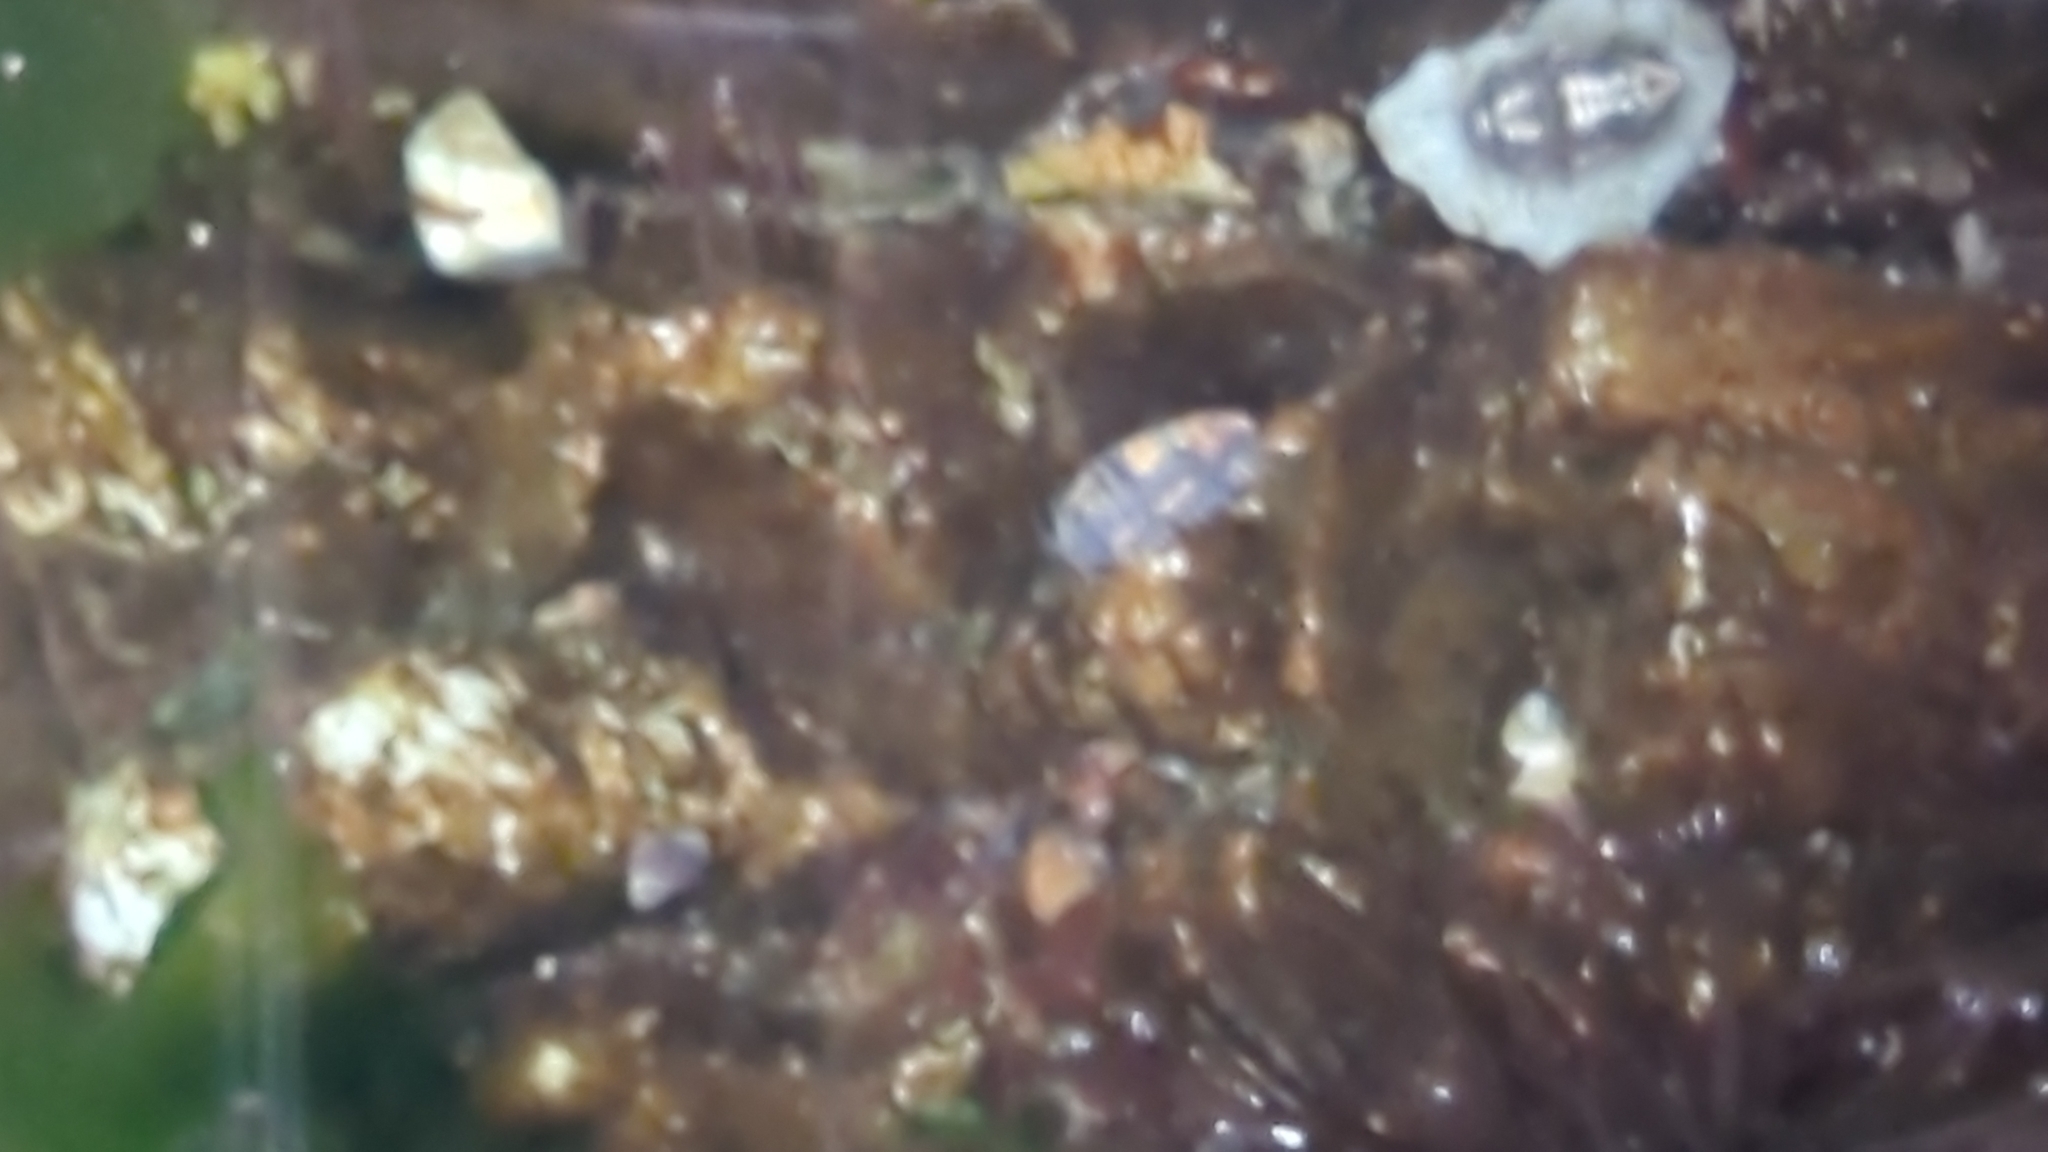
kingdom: Animalia
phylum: Arthropoda
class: Malacostraca
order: Isopoda
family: Sphaeromatidae
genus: Gnorimosphaeroma
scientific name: Gnorimosphaeroma oregonense
